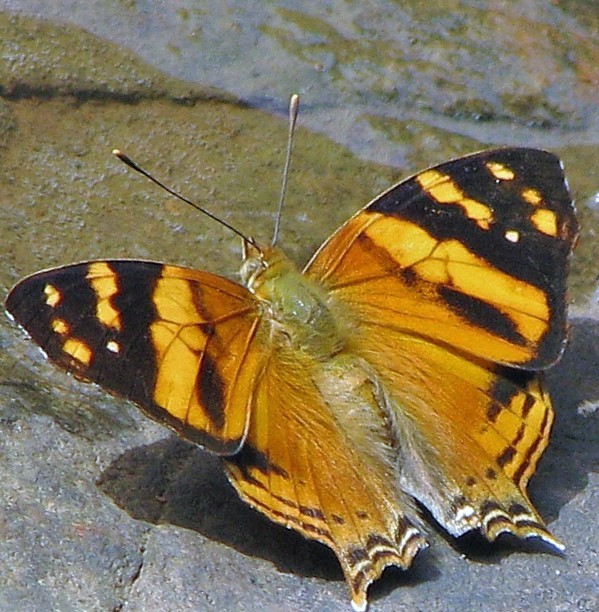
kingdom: Animalia
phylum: Arthropoda
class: Insecta
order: Lepidoptera
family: Nymphalidae
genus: Hypanartia
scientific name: Hypanartia lethe
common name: Orange mapwing
